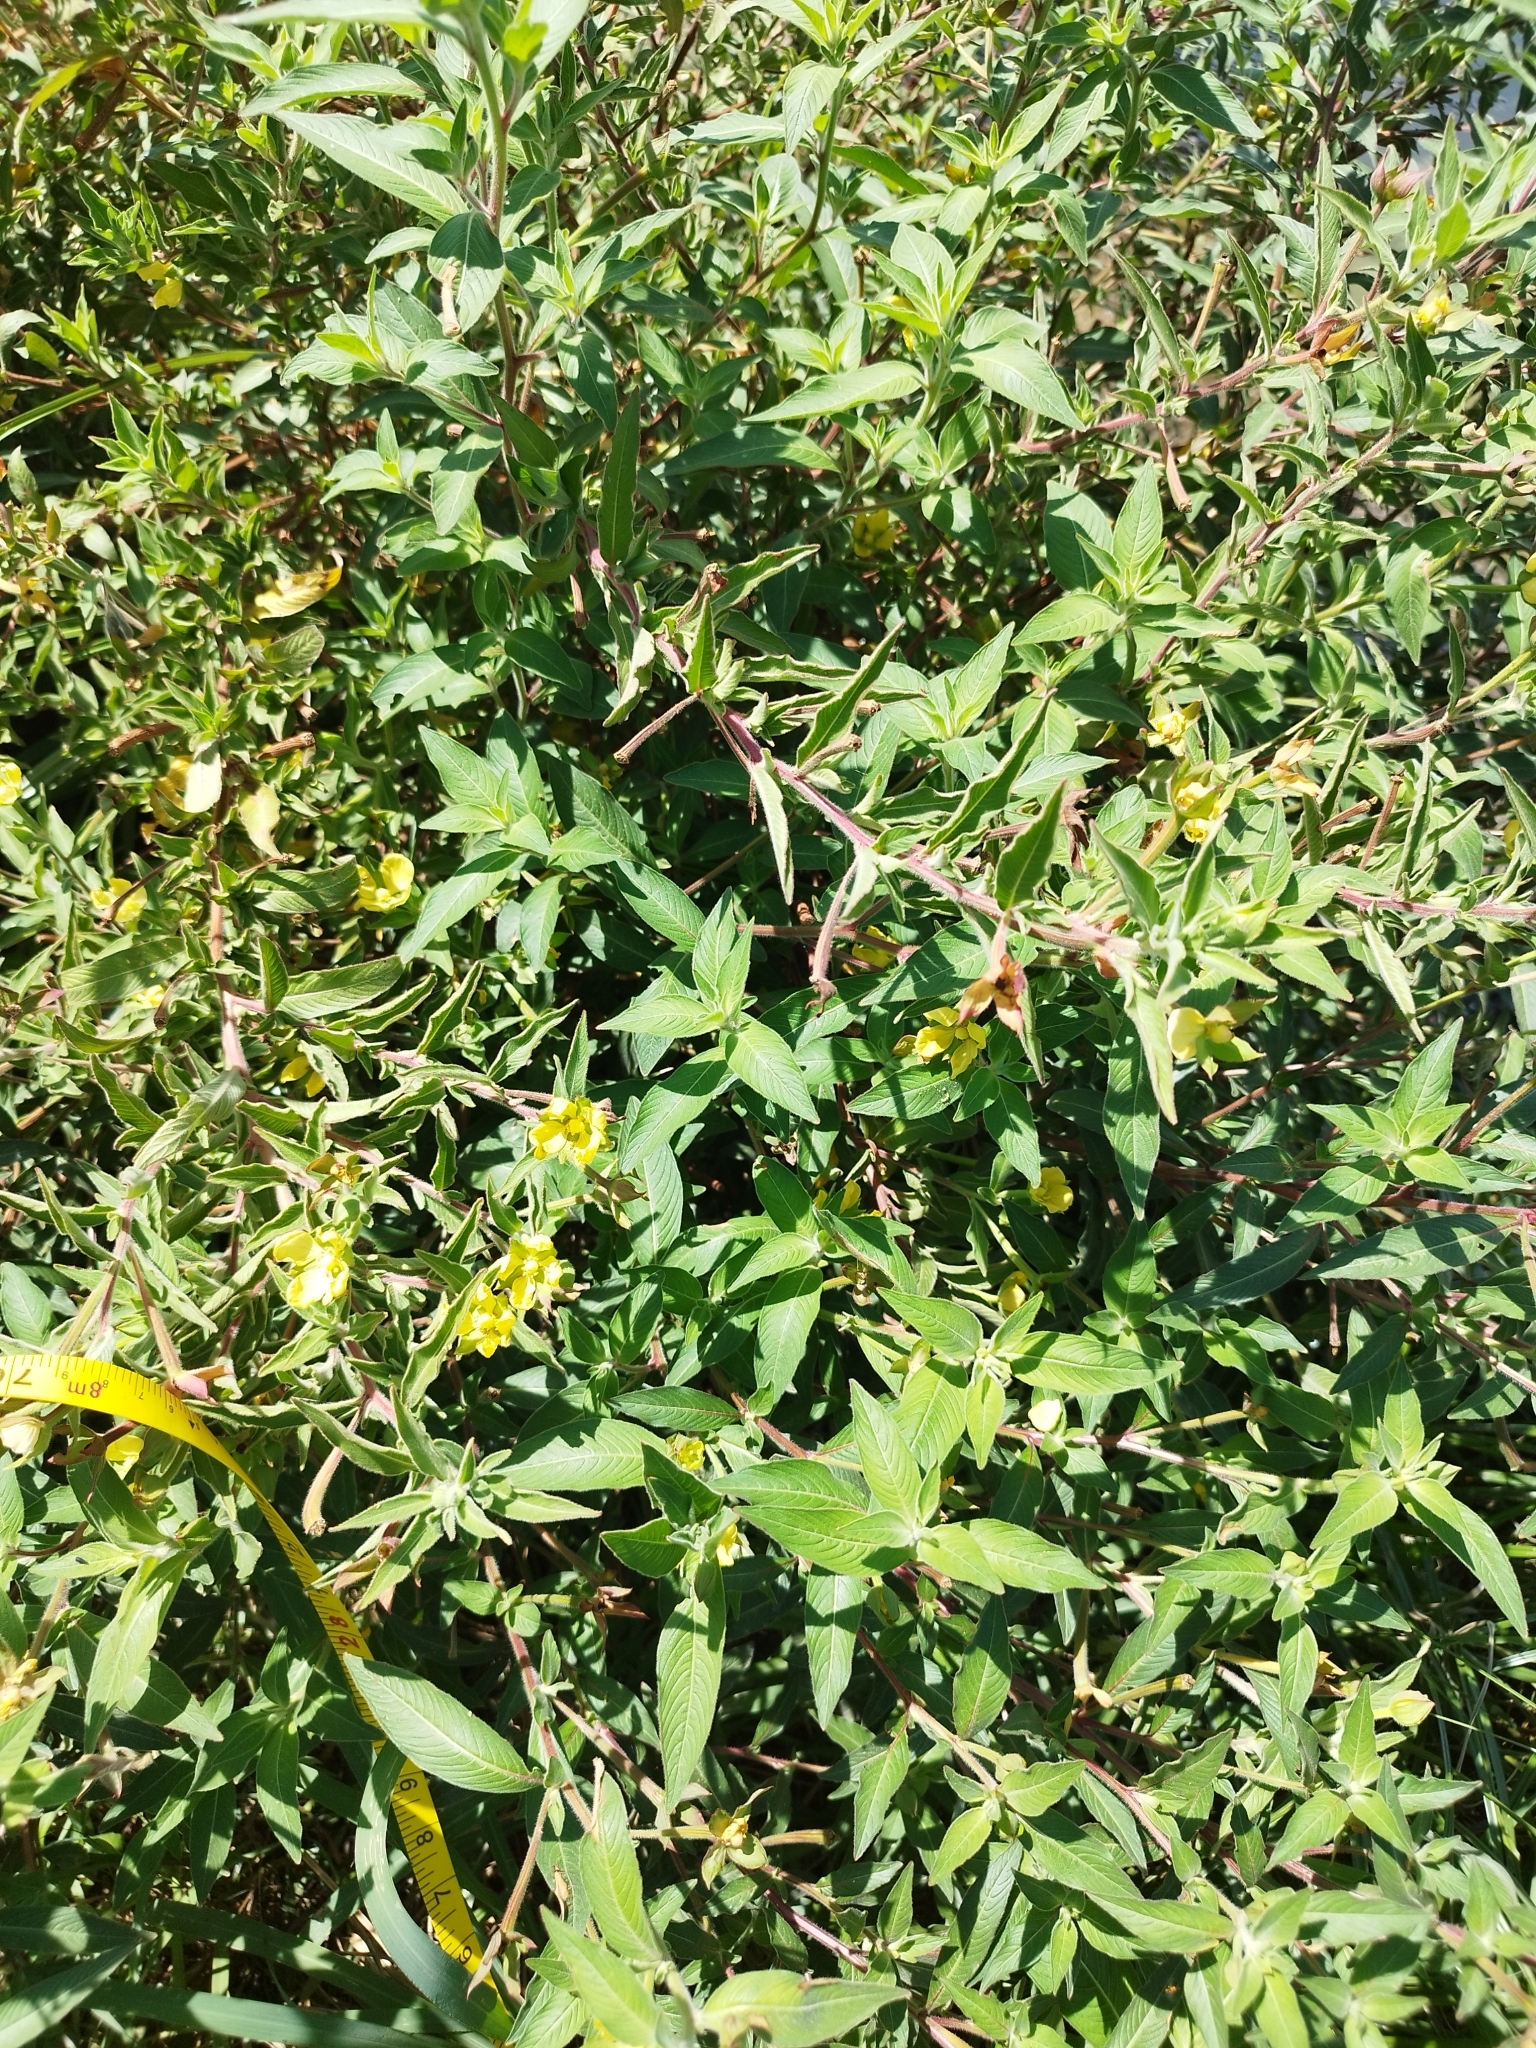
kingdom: Plantae
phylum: Tracheophyta
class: Magnoliopsida
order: Myrtales
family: Onagraceae
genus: Ludwigia
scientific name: Ludwigia octovalvis
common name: Water-primrose
